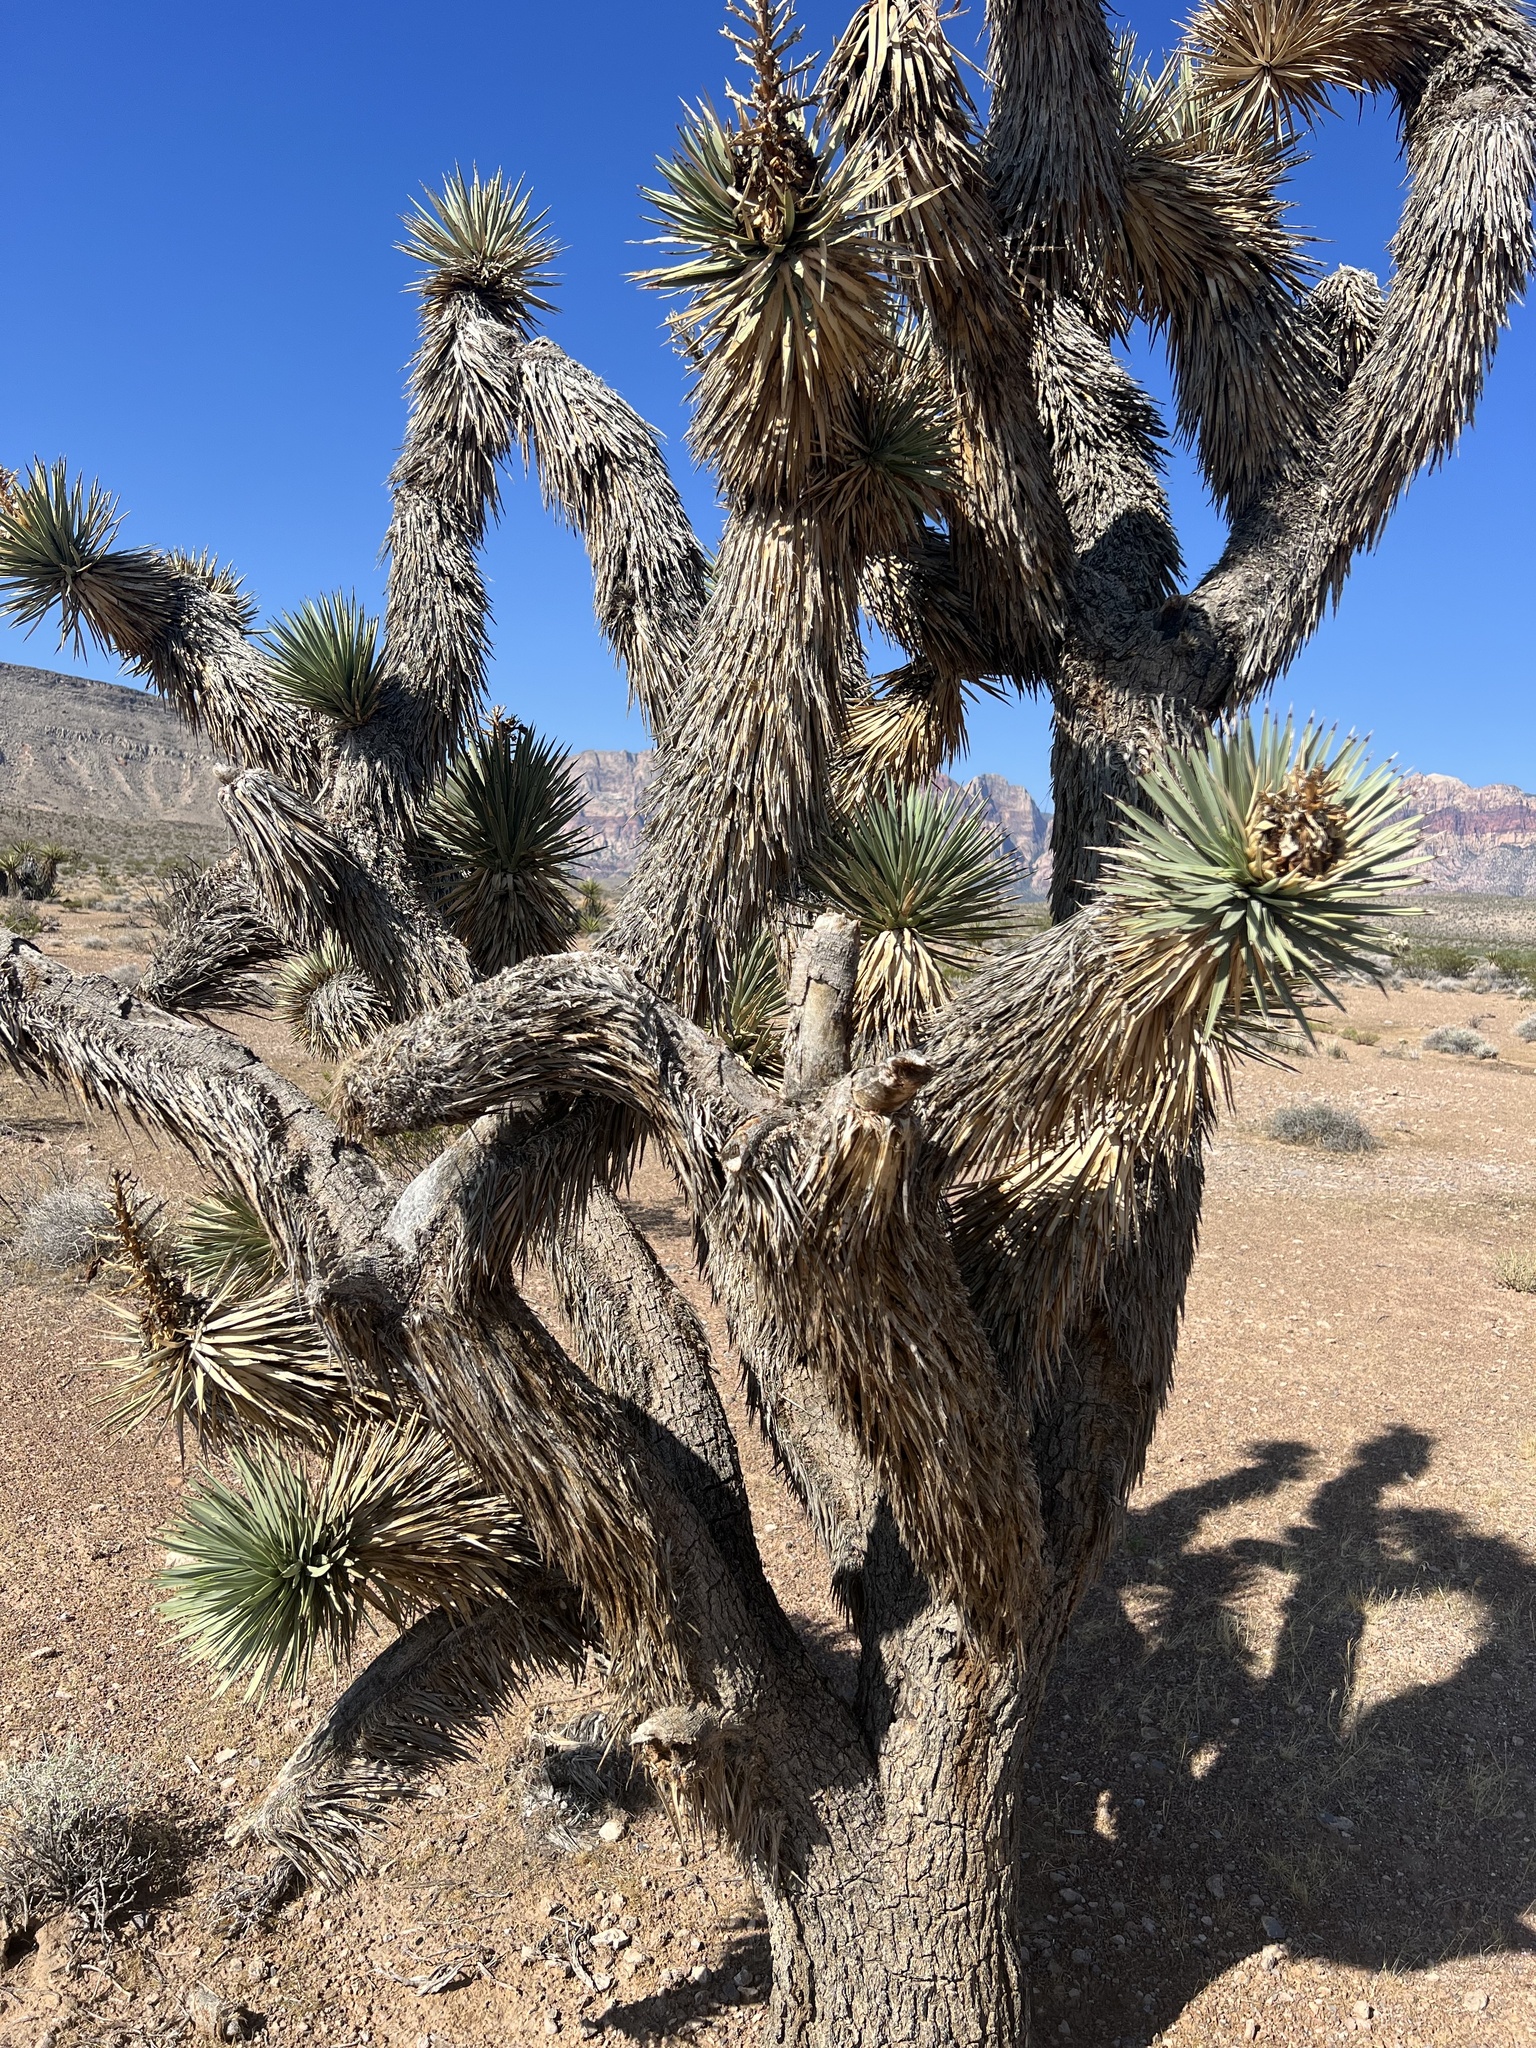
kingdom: Plantae
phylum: Tracheophyta
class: Liliopsida
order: Asparagales
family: Asparagaceae
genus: Yucca
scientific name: Yucca brevifolia
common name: Joshua tree
